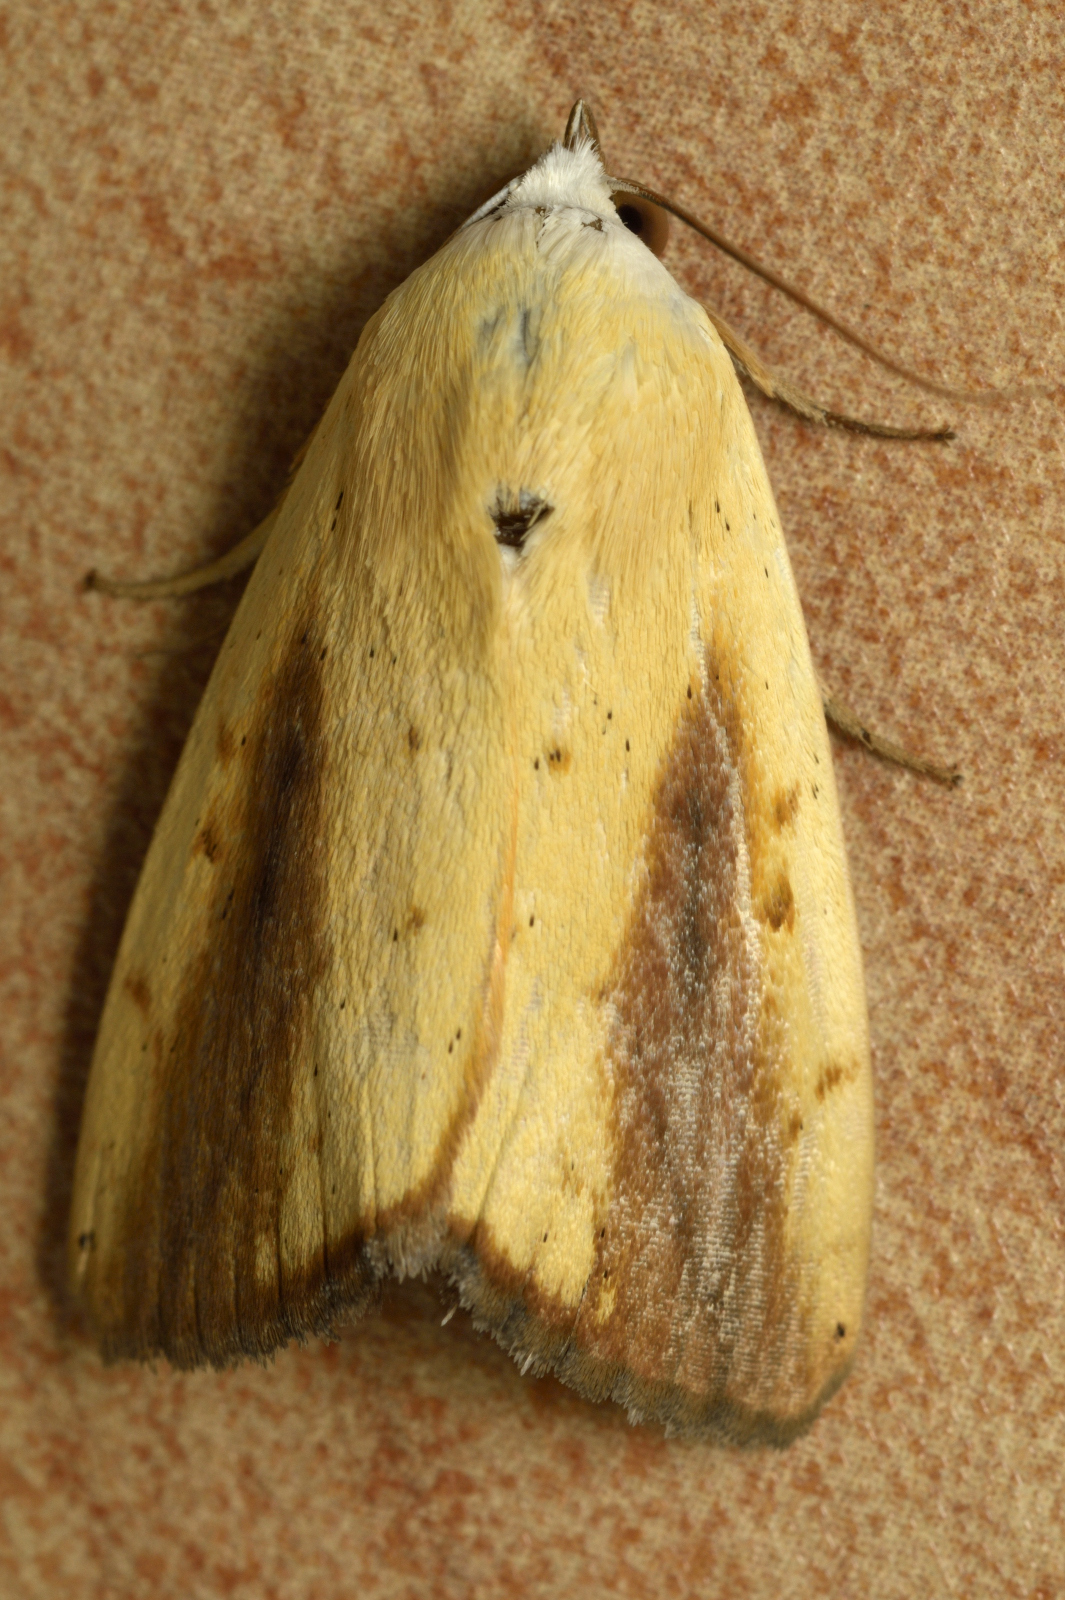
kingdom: Animalia
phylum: Arthropoda
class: Insecta
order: Lepidoptera
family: Nolidae
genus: Xanthodes
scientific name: Xanthodes intersepta
